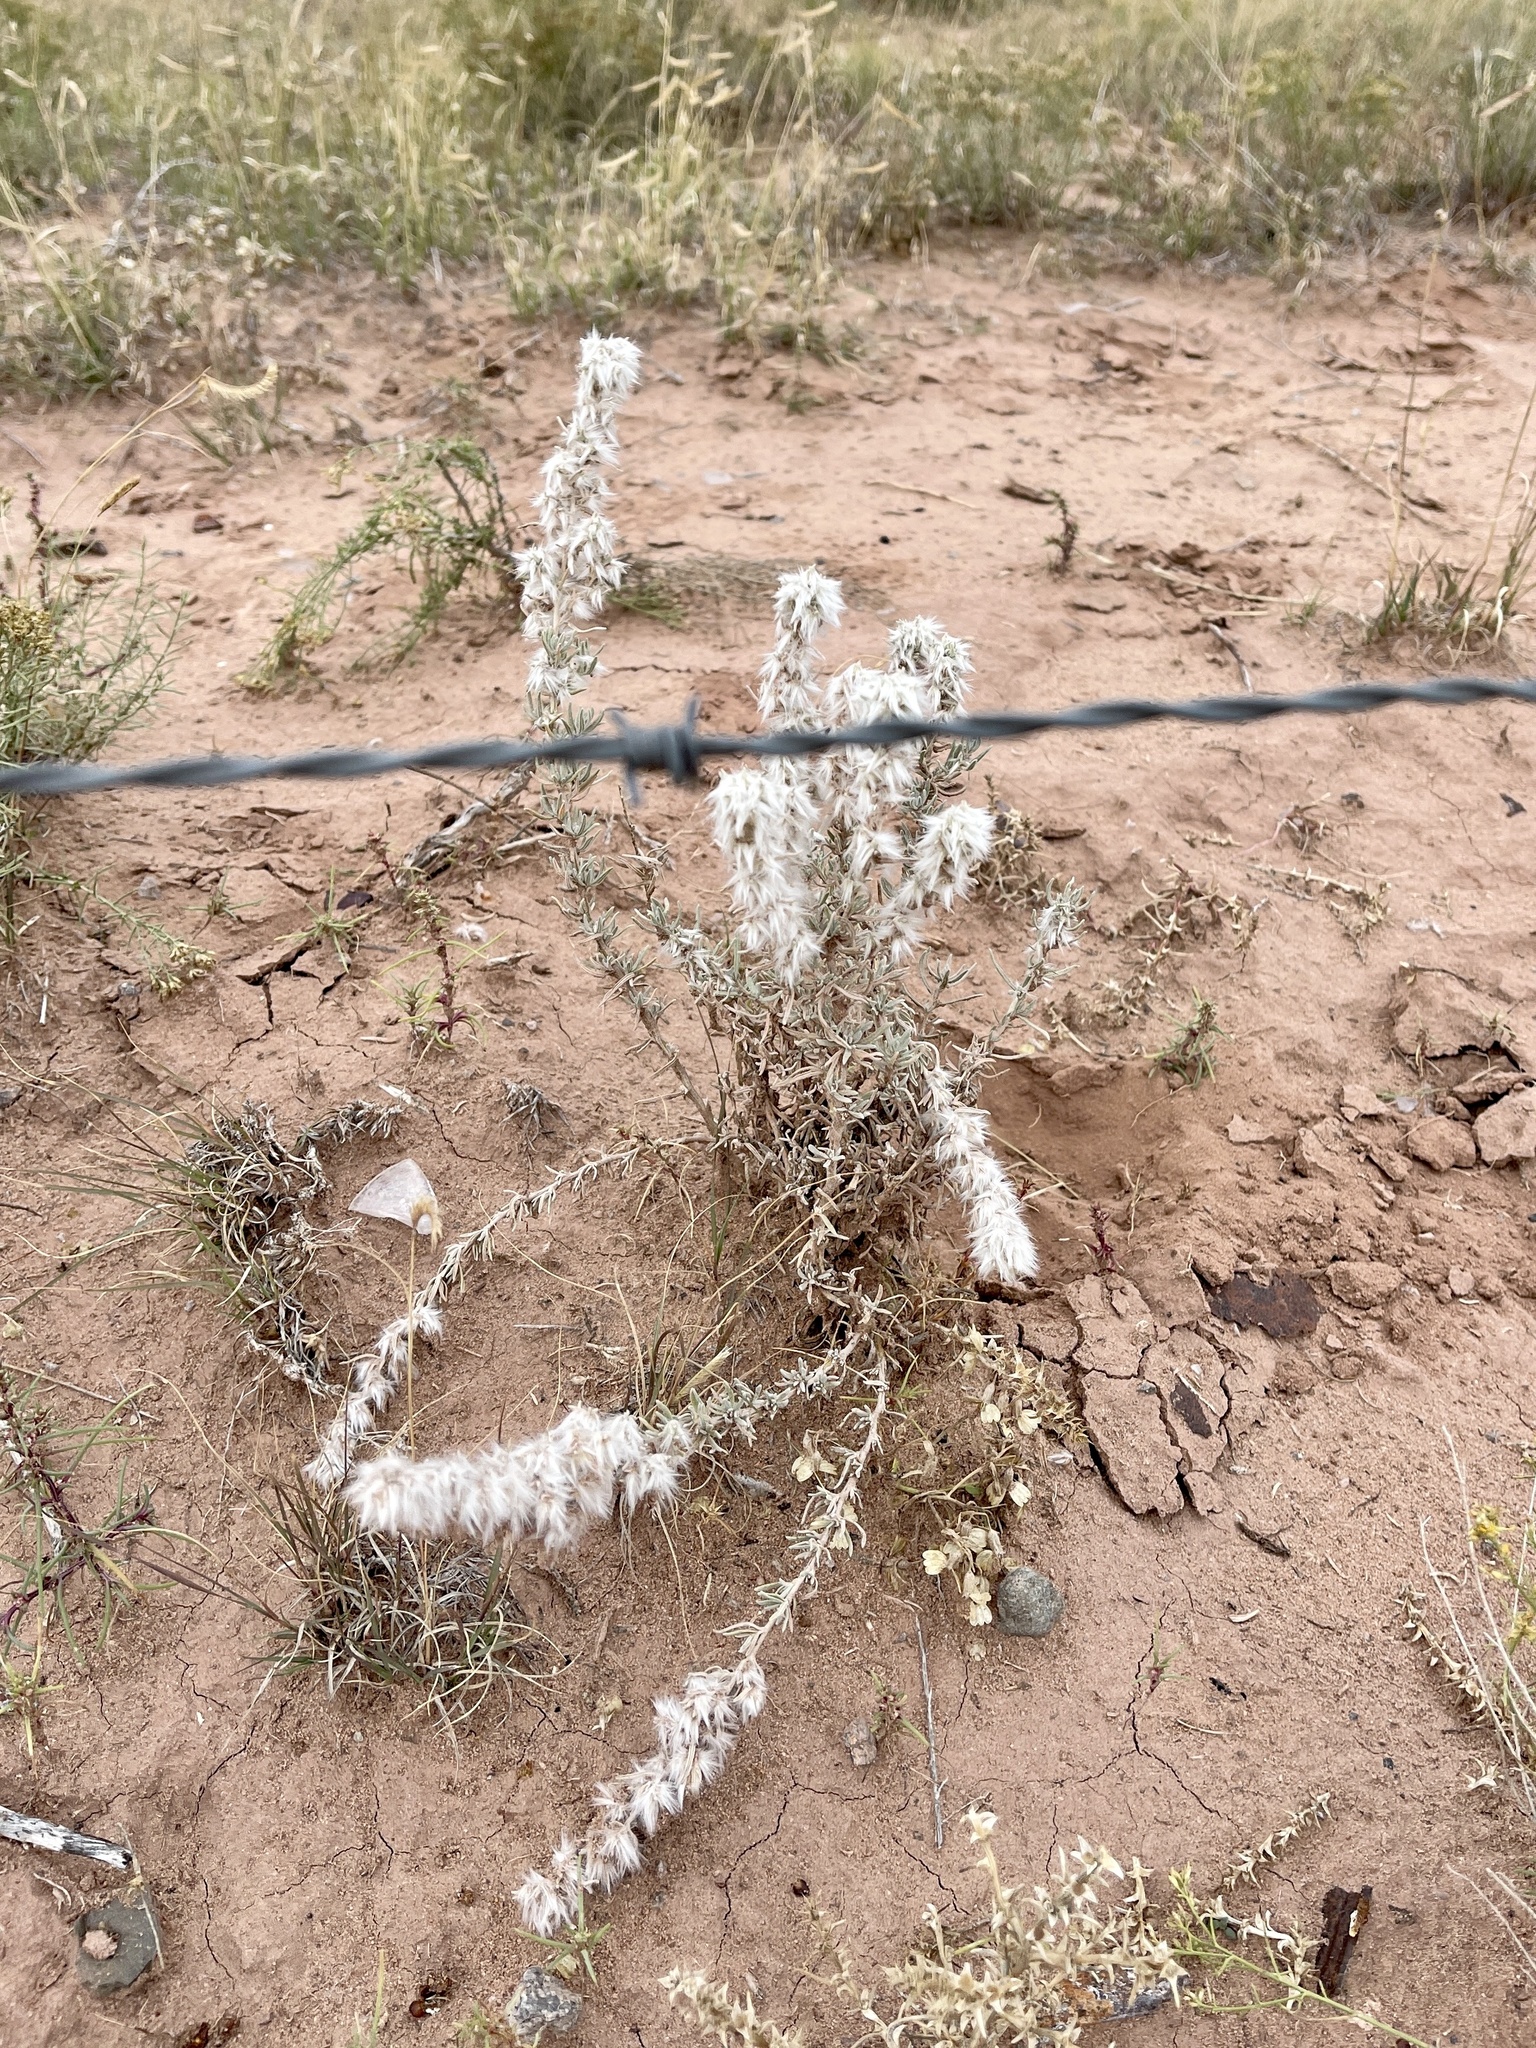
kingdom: Plantae
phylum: Tracheophyta
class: Magnoliopsida
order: Caryophyllales
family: Amaranthaceae
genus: Krascheninnikovia
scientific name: Krascheninnikovia lanata
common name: Winterfat
